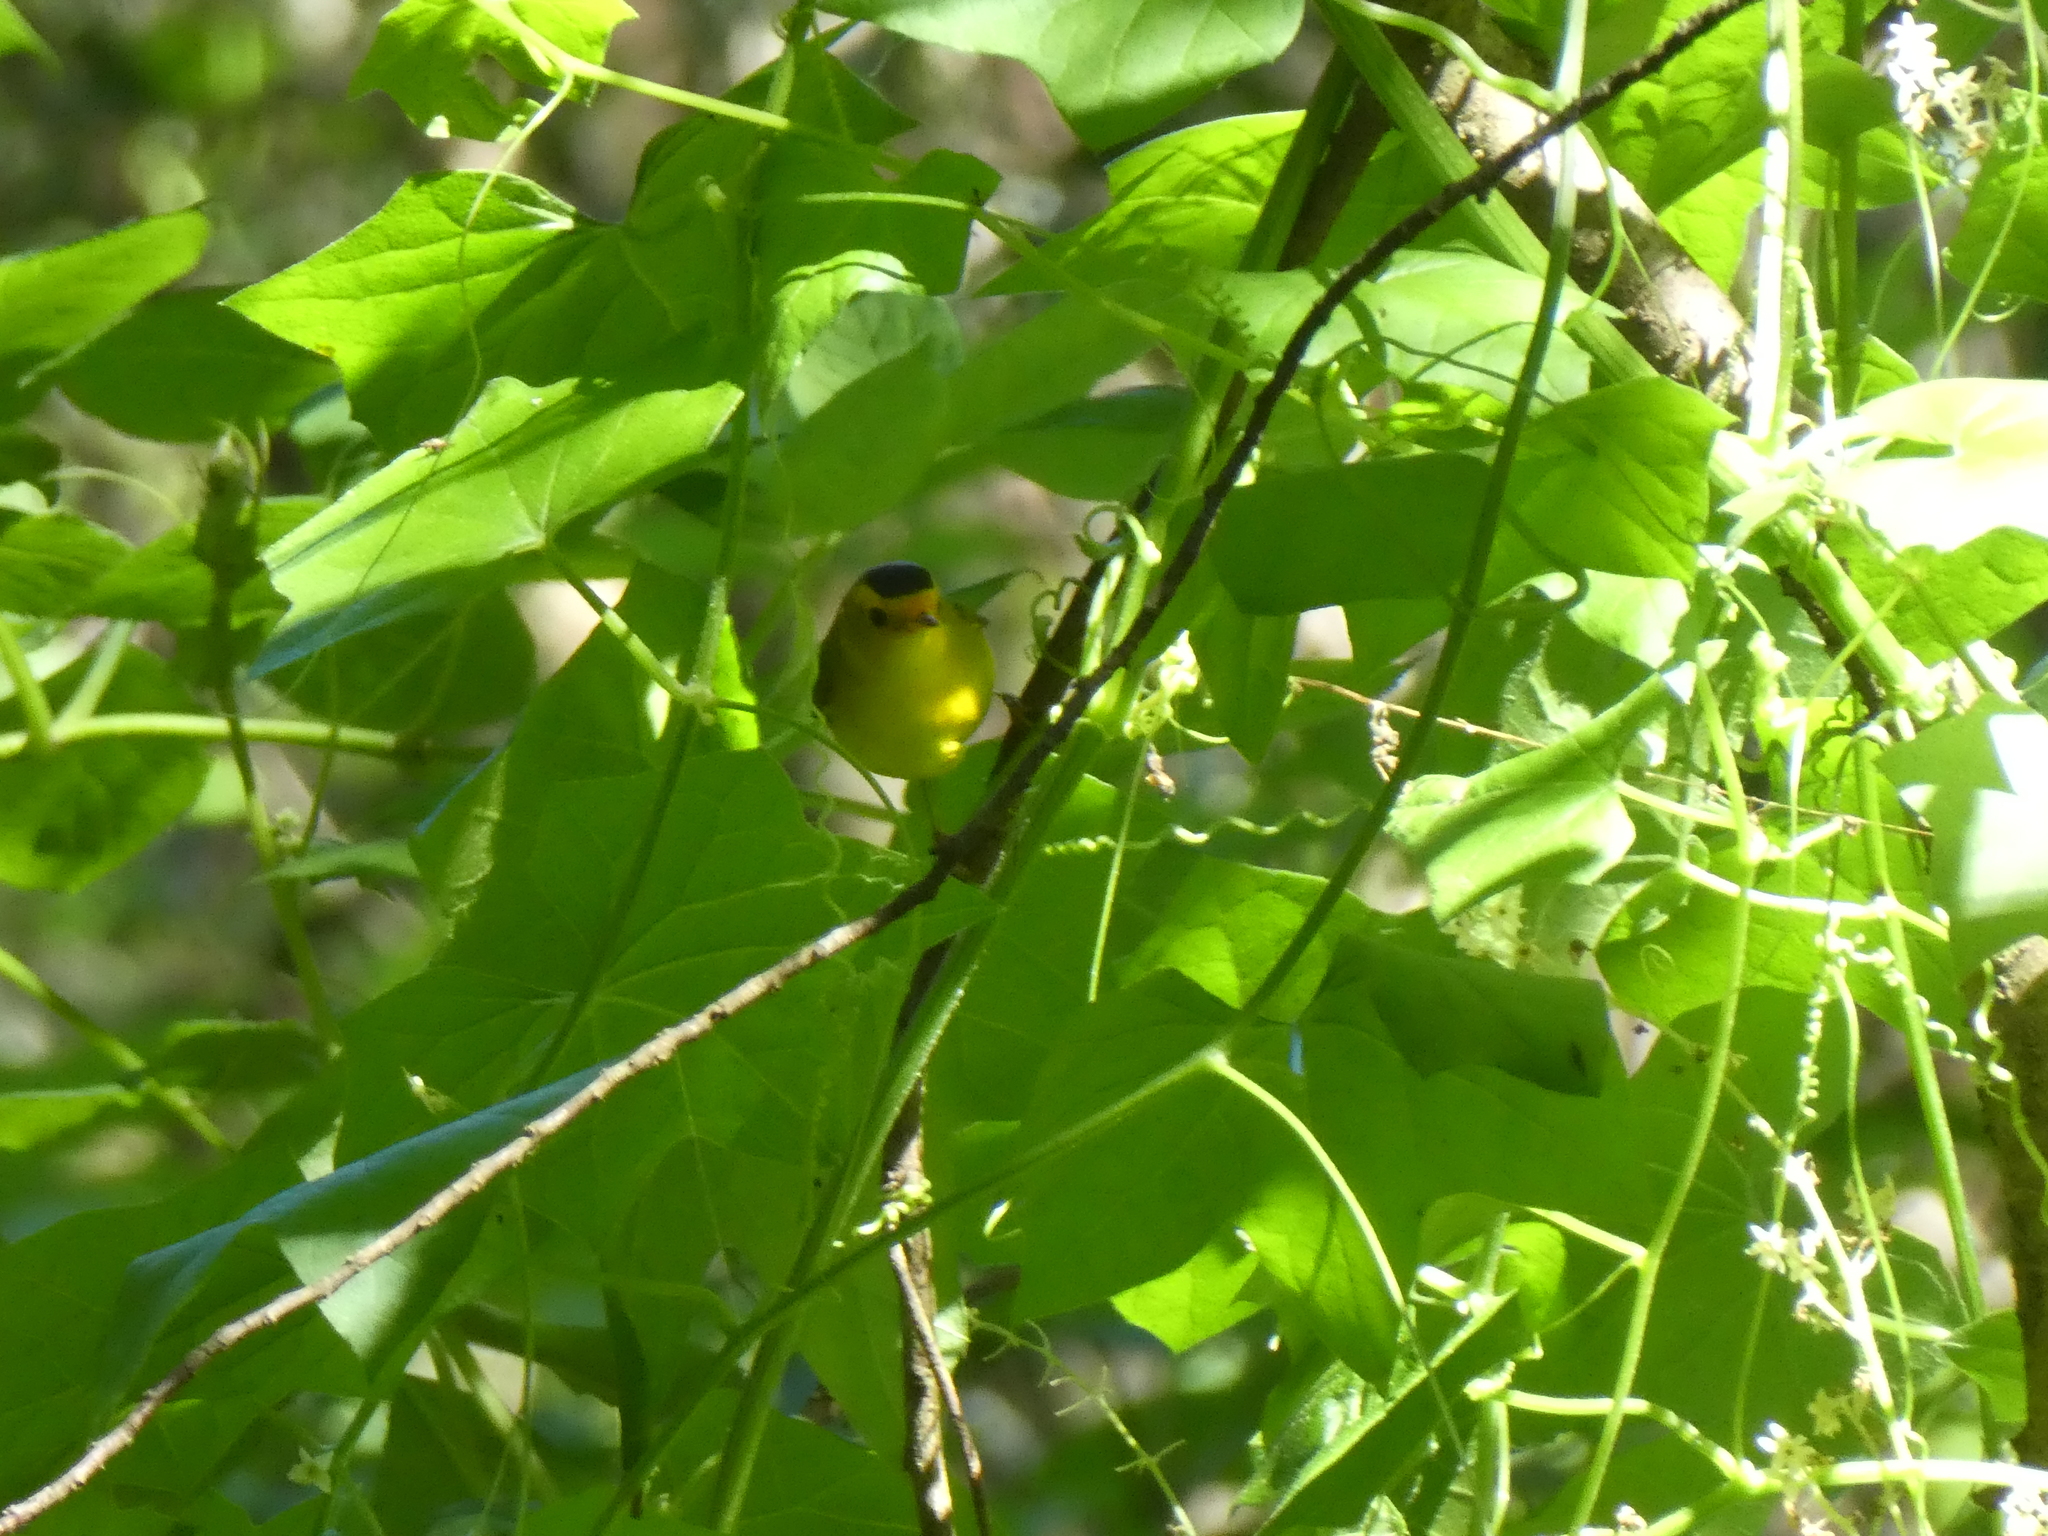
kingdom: Animalia
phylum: Chordata
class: Aves
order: Passeriformes
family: Parulidae
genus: Cardellina
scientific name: Cardellina pusilla
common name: Wilson's warbler
